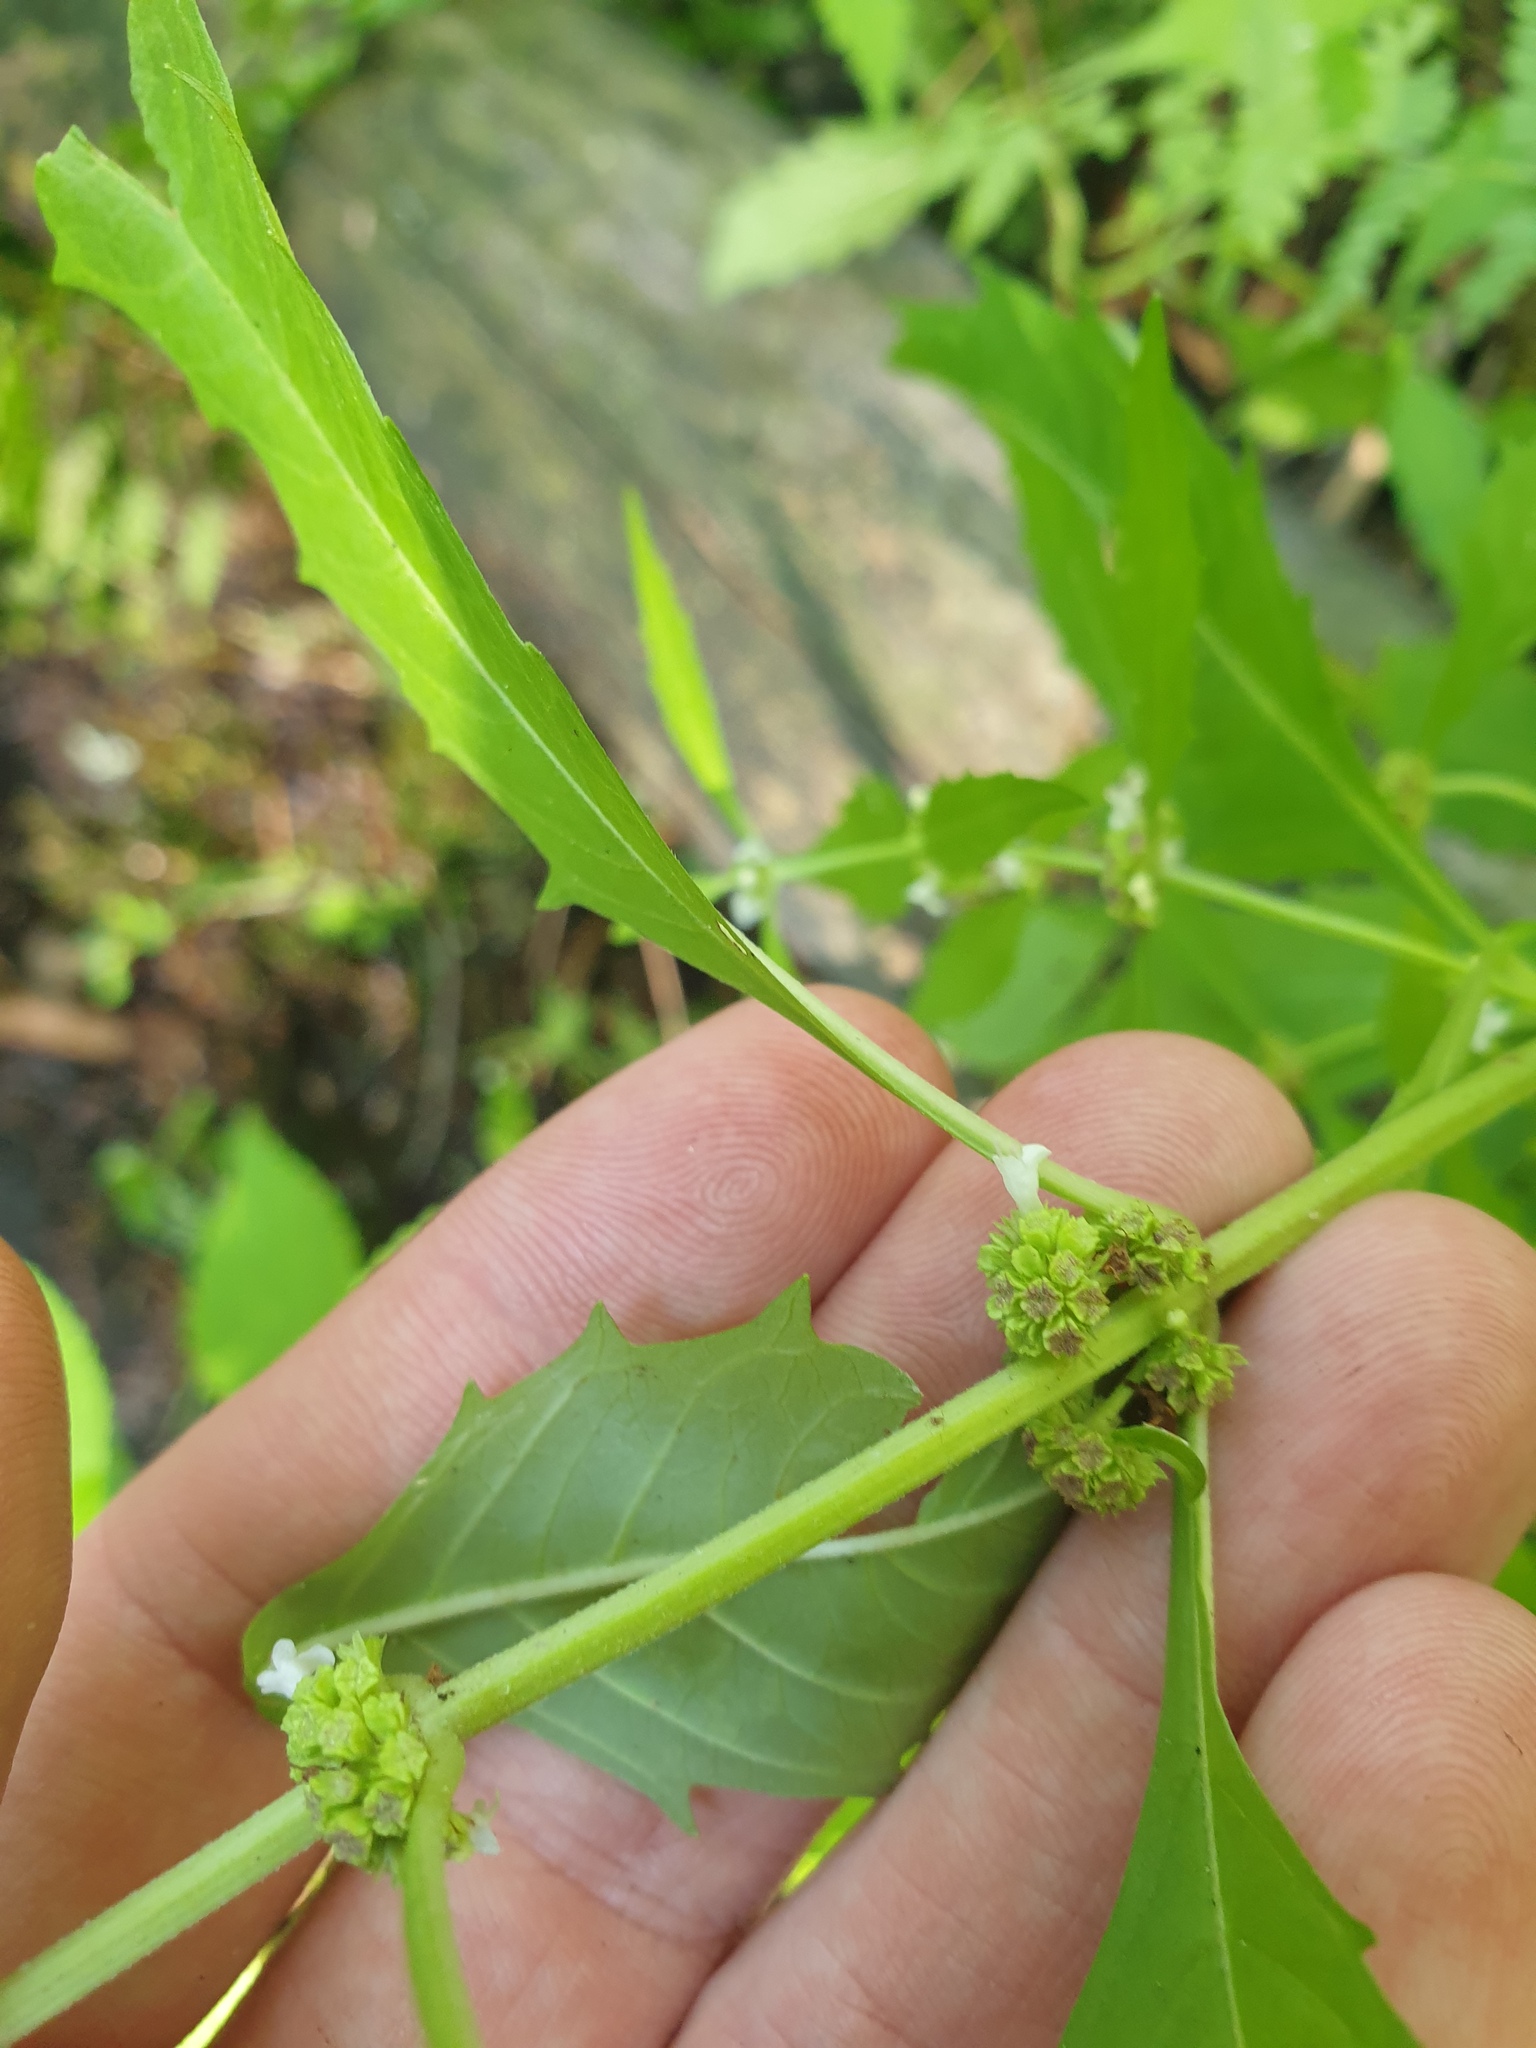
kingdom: Plantae
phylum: Tracheophyta
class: Magnoliopsida
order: Lamiales
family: Lamiaceae
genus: Lycopus
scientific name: Lycopus uniflorus
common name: Northern bugleweed
